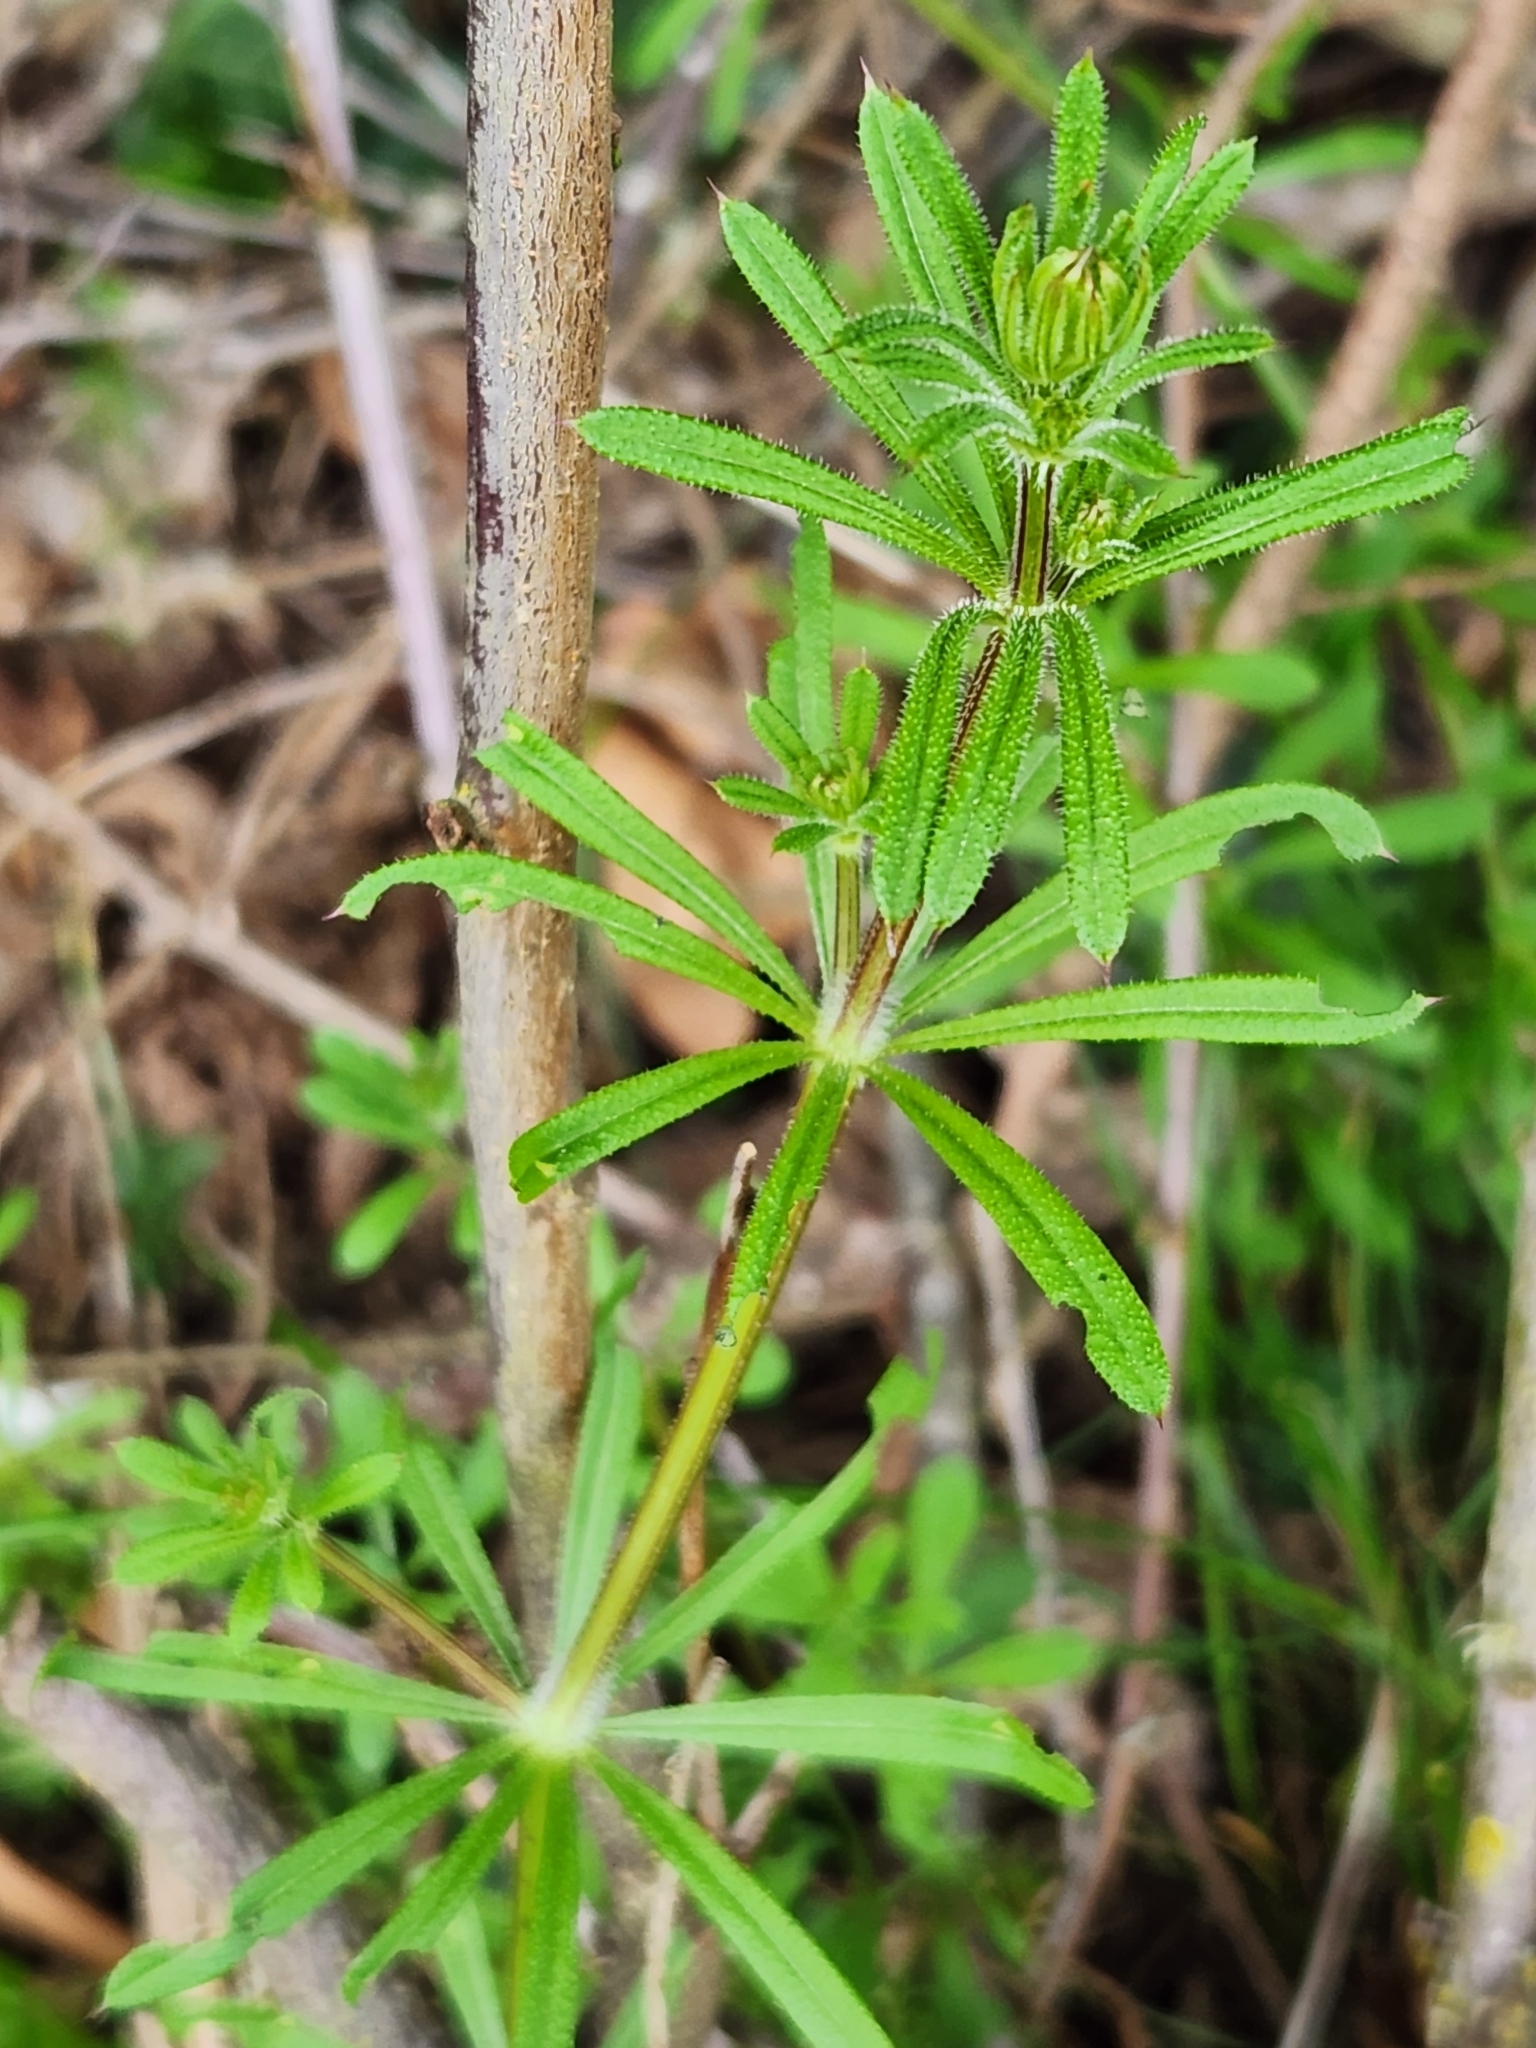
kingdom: Plantae
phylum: Tracheophyta
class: Magnoliopsida
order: Gentianales
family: Rubiaceae
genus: Galium
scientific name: Galium aparine
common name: Cleavers
